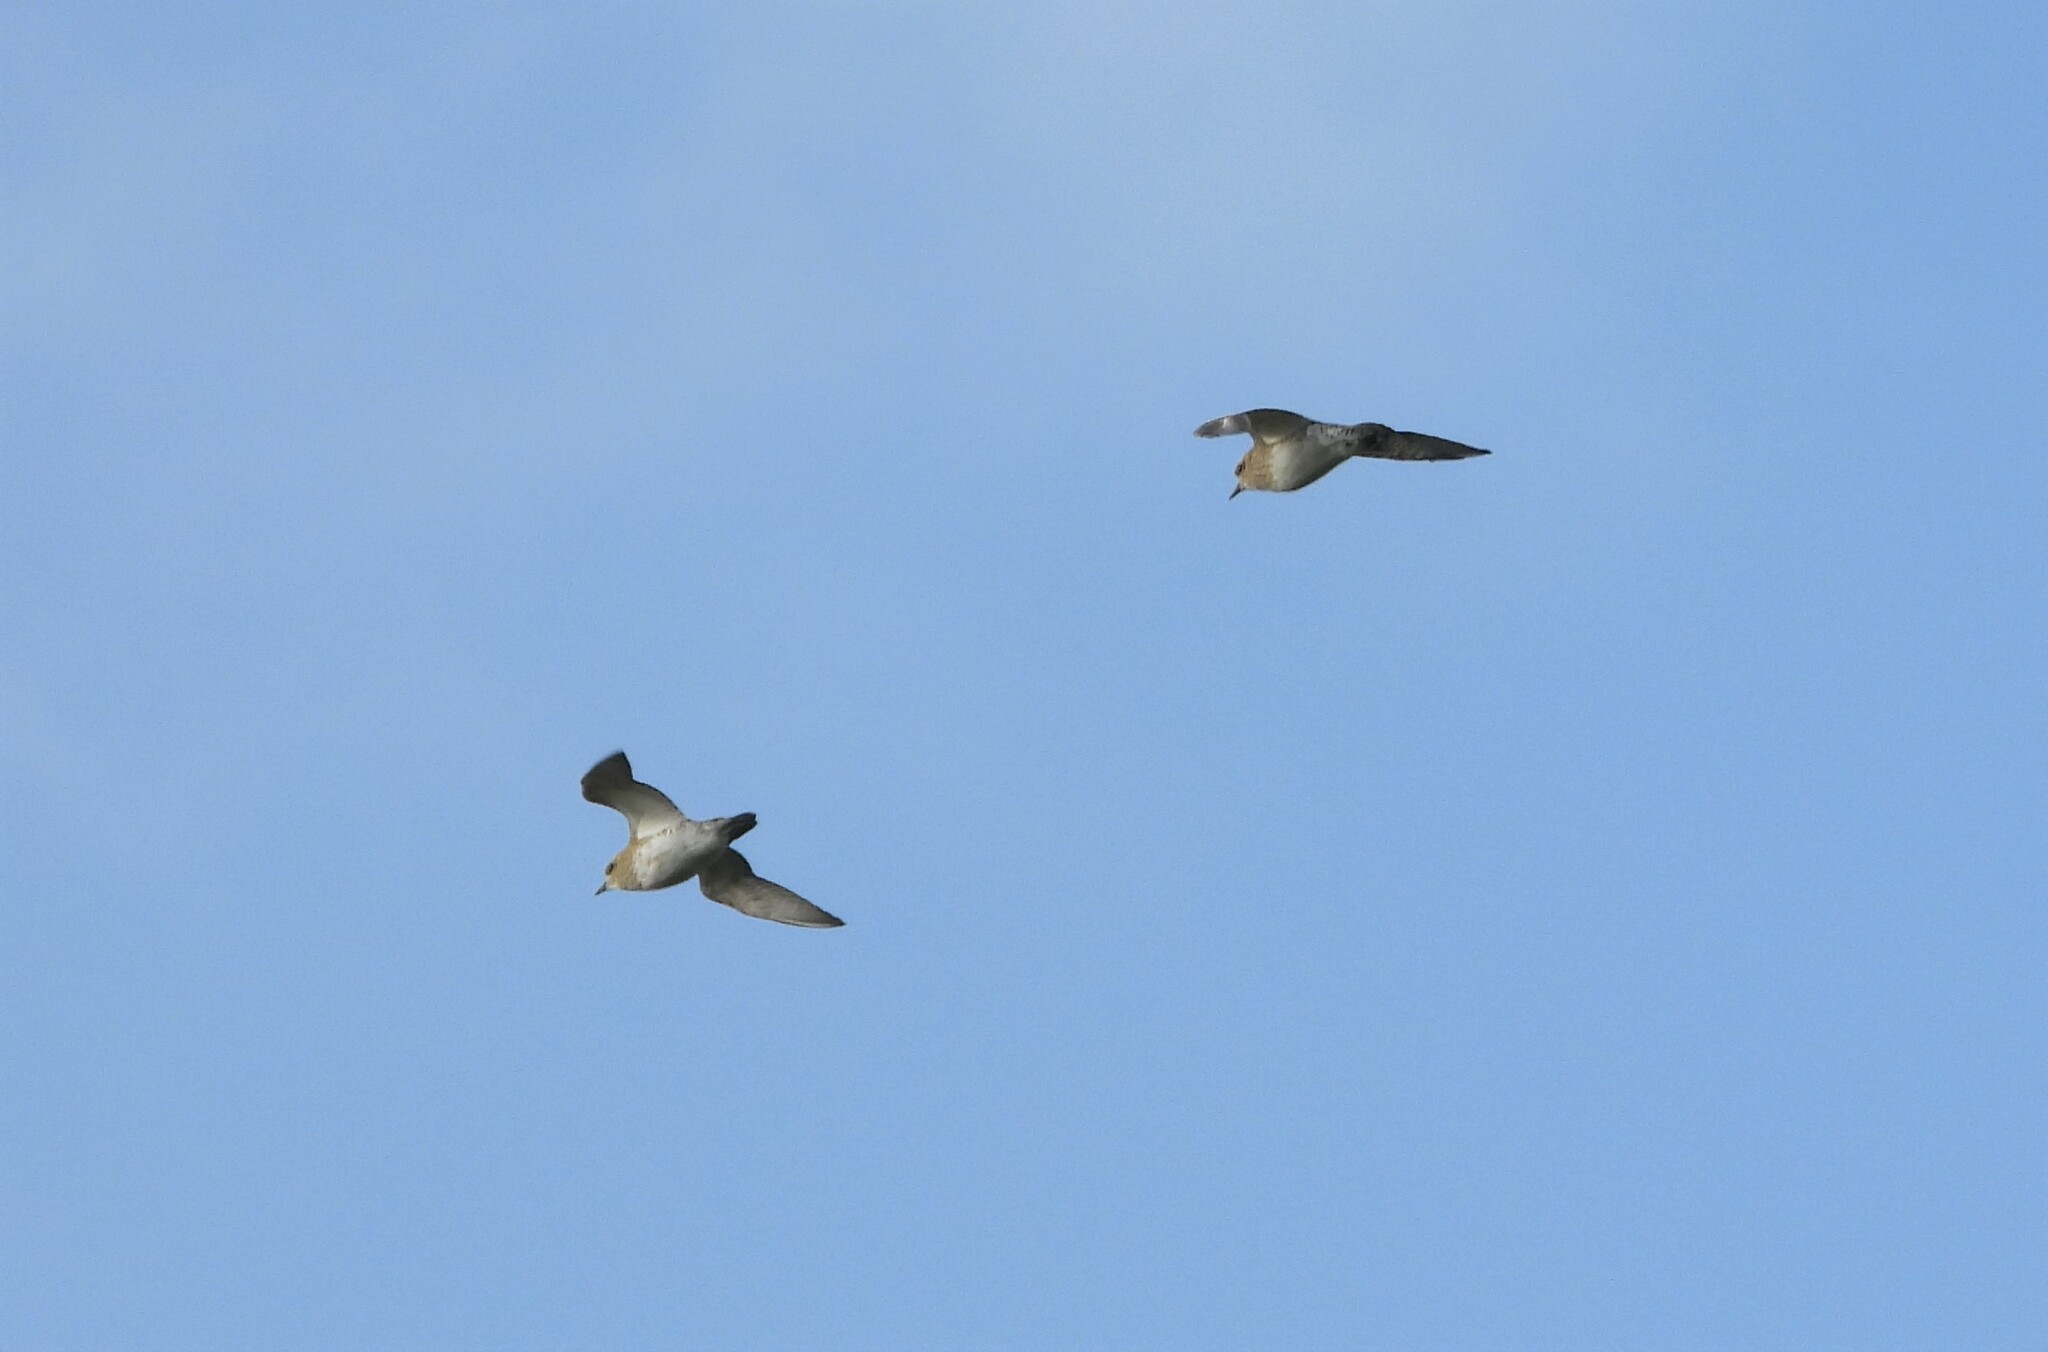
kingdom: Animalia
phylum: Chordata
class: Aves
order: Charadriiformes
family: Charadriidae
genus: Pluvialis
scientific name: Pluvialis apricaria
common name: European golden plover
